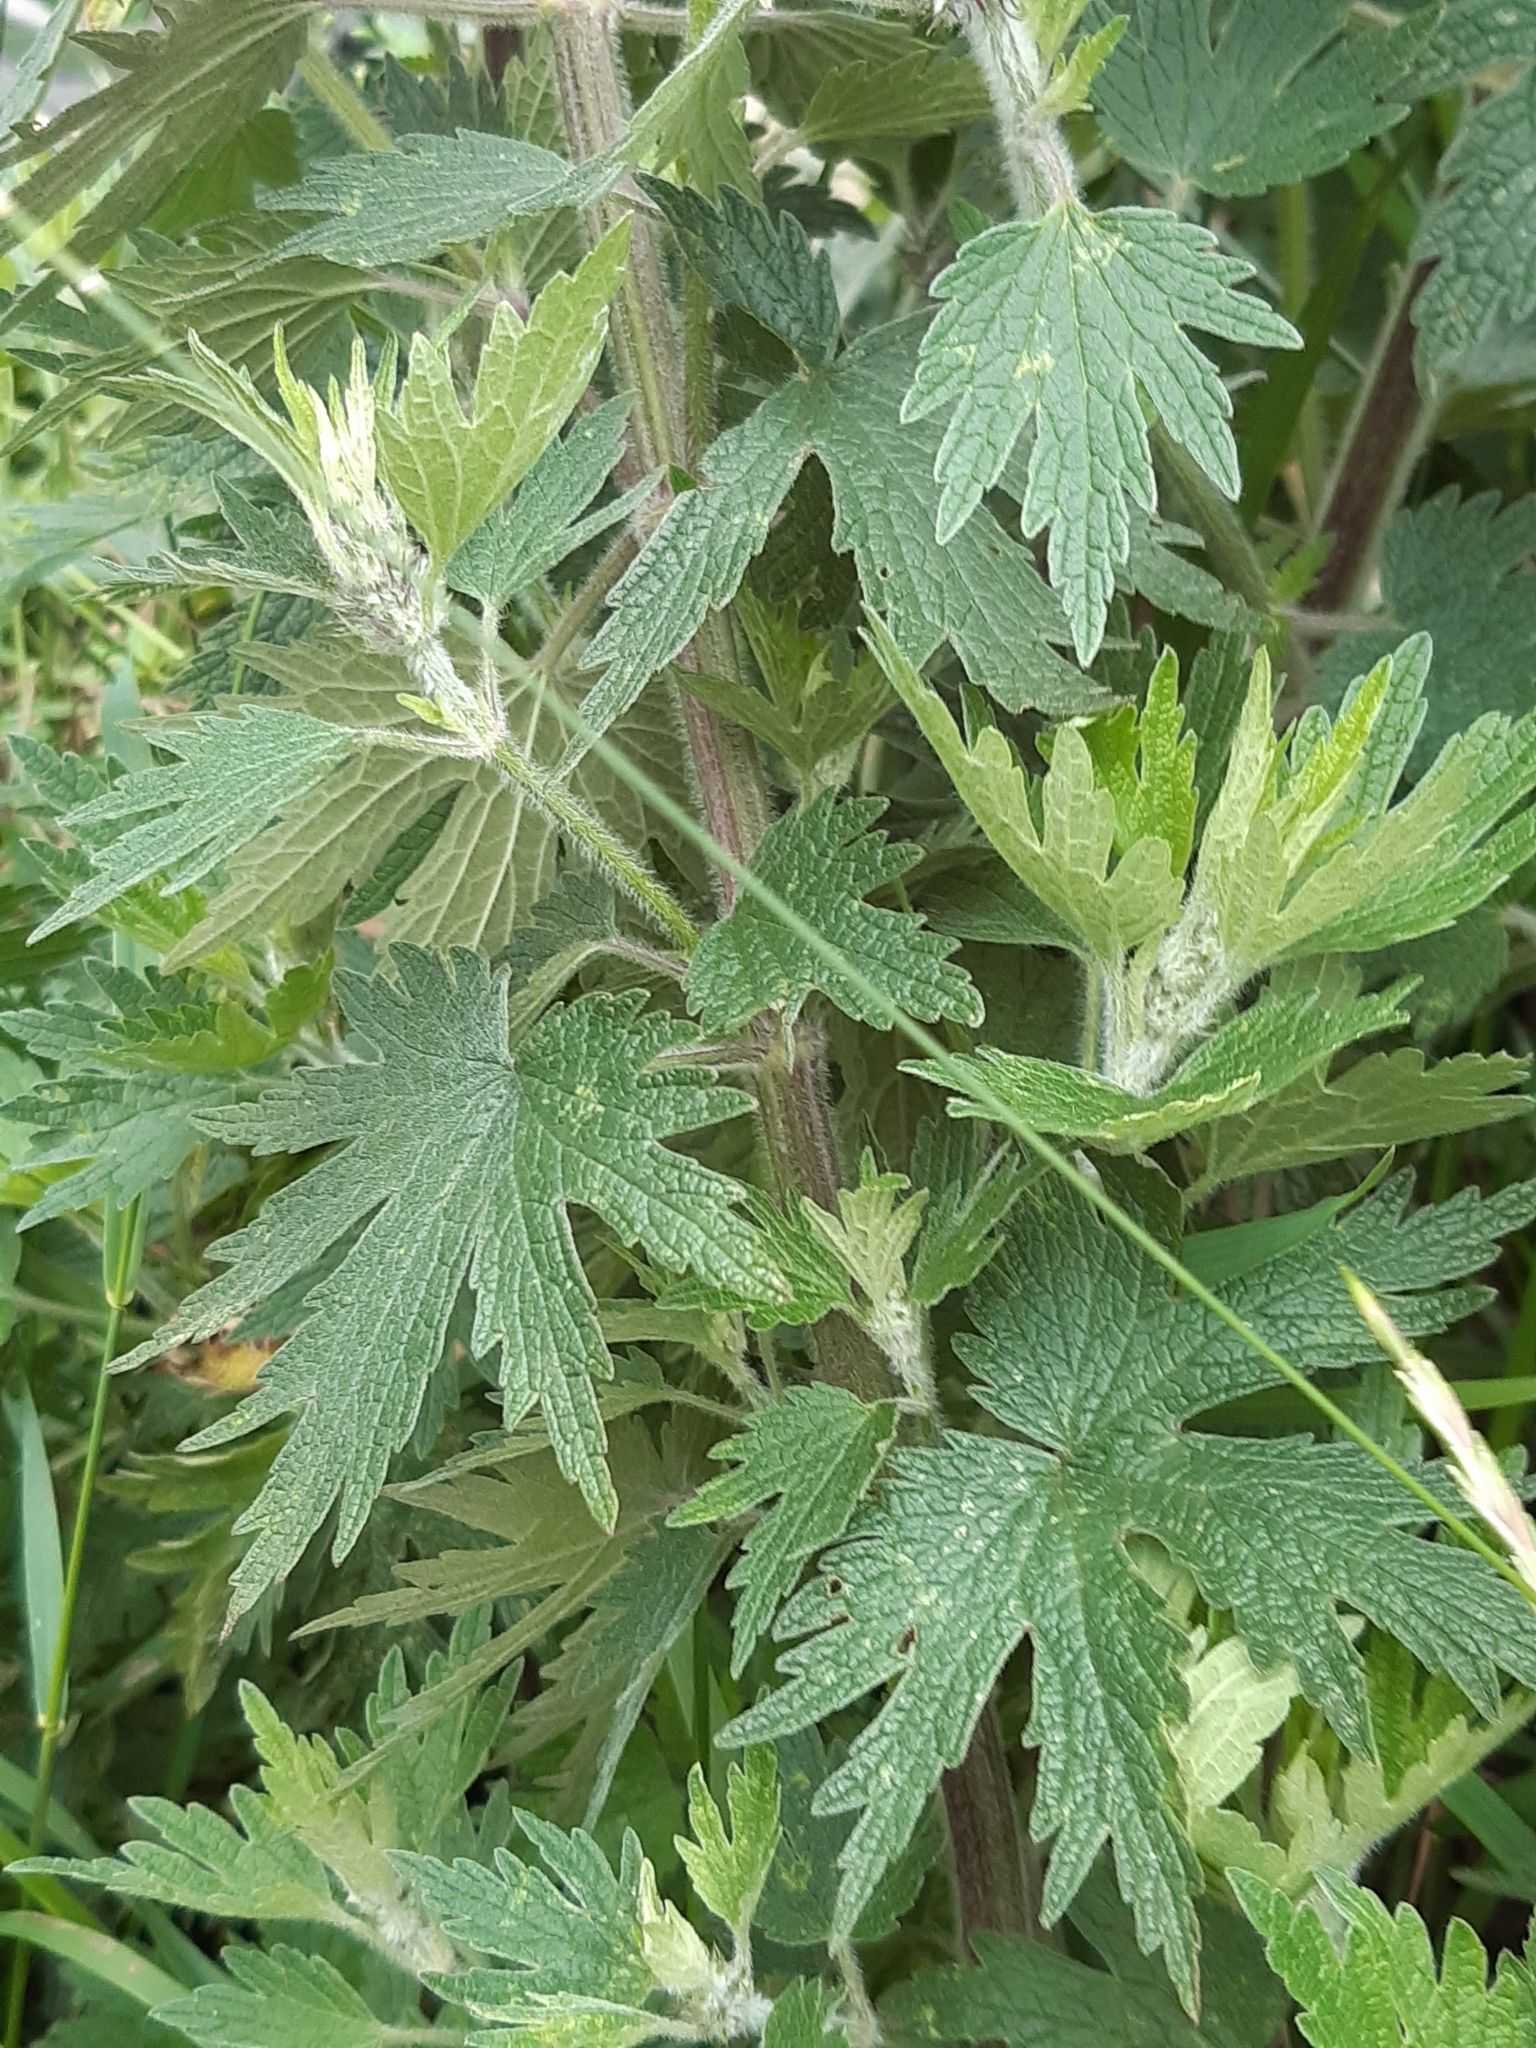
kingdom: Plantae
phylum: Tracheophyta
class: Magnoliopsida
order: Lamiales
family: Lamiaceae
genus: Leonurus
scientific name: Leonurus quinquelobatus
